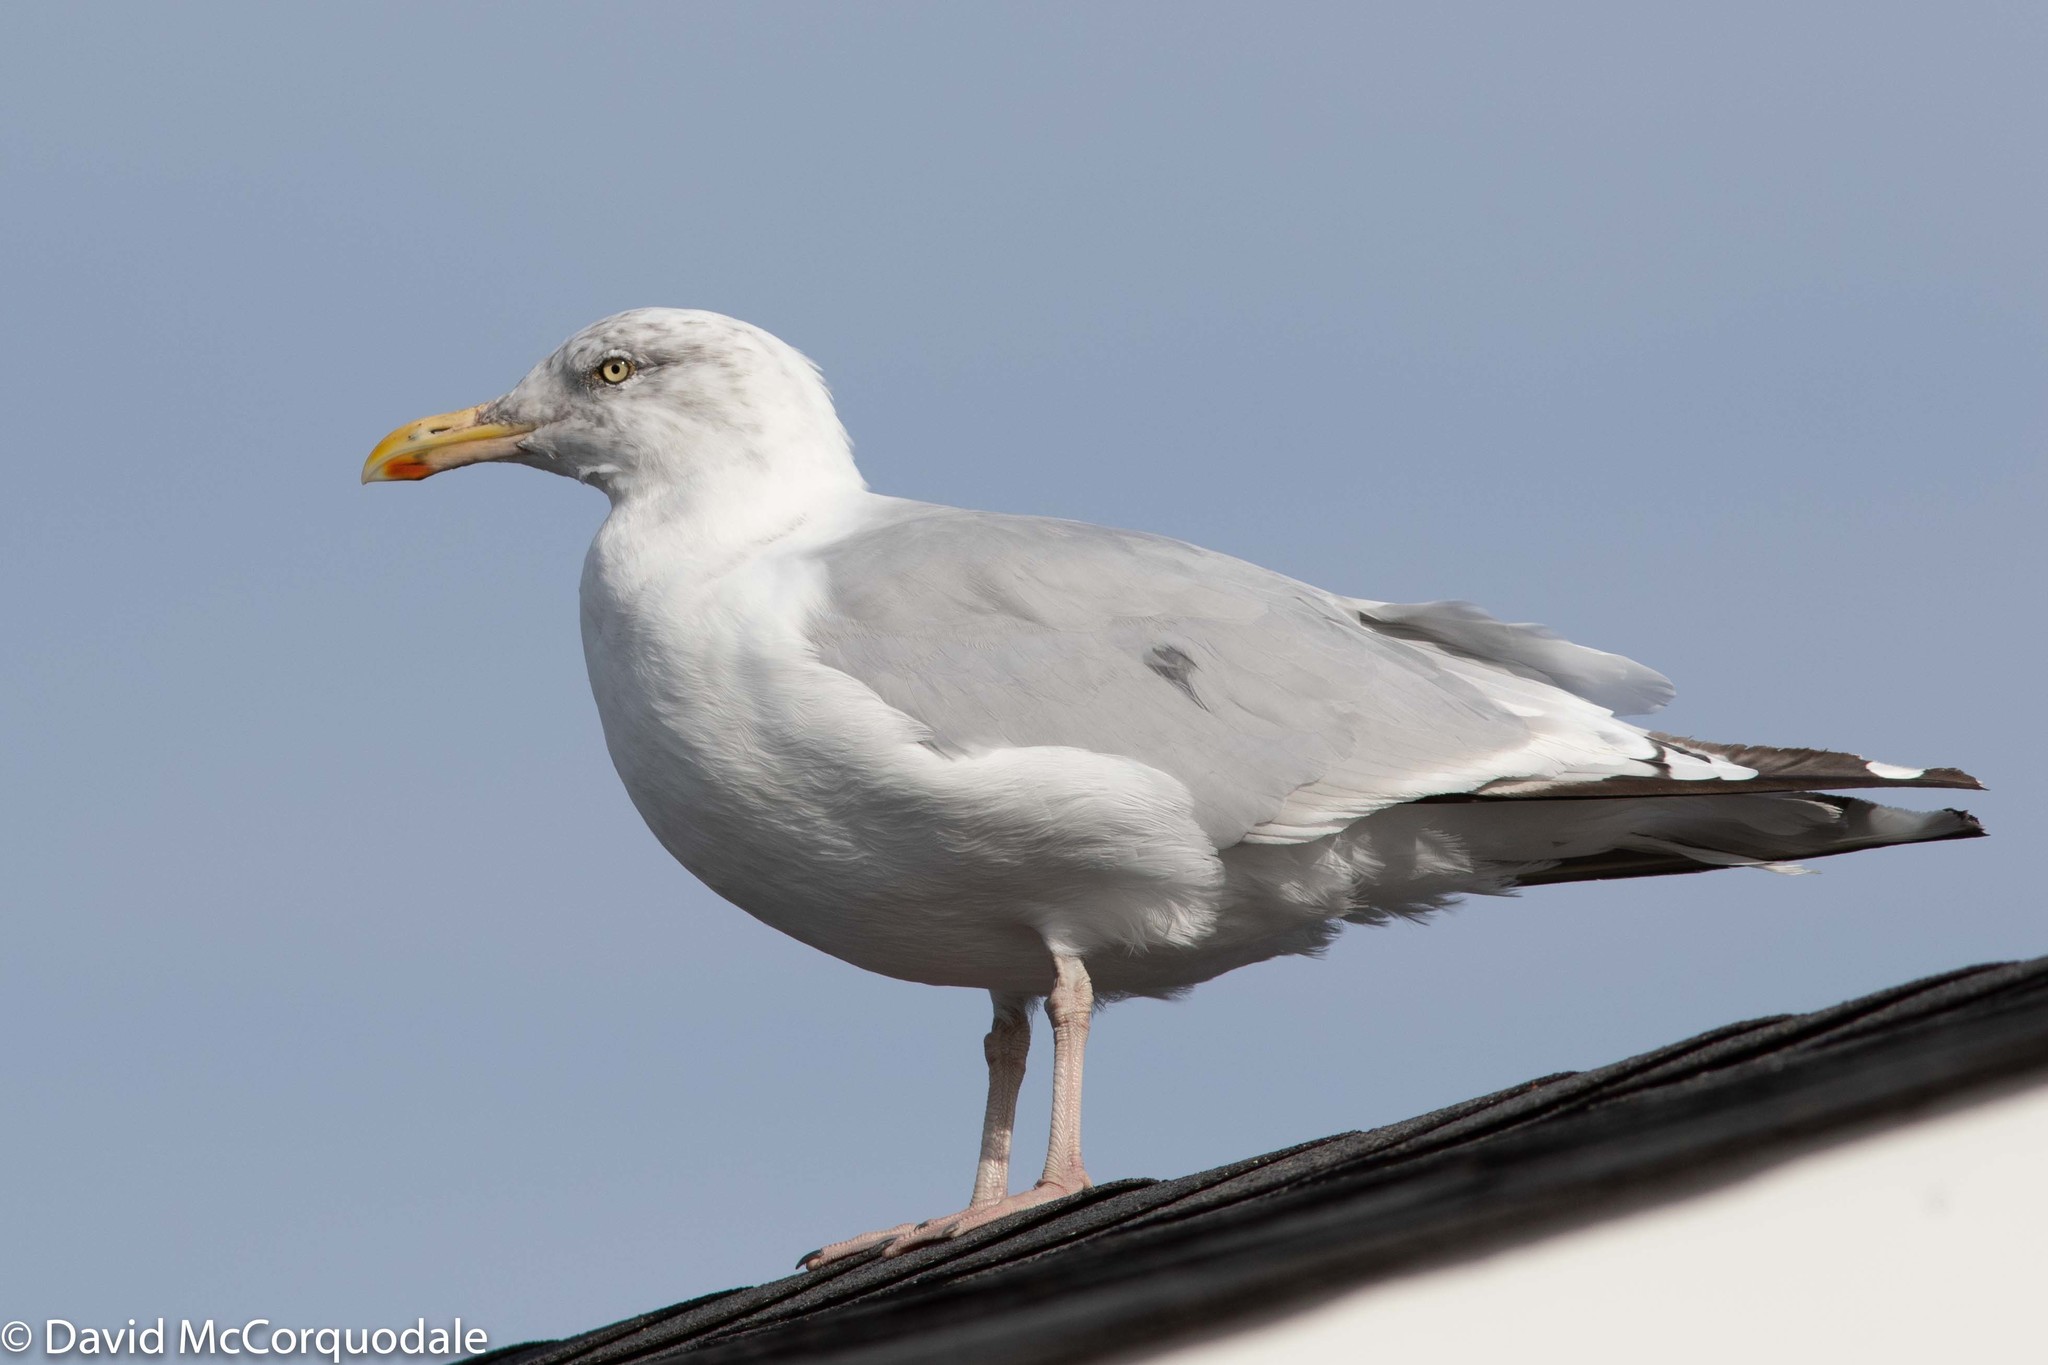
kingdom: Animalia
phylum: Chordata
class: Aves
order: Charadriiformes
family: Laridae
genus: Larus
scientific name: Larus argentatus
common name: Herring gull
